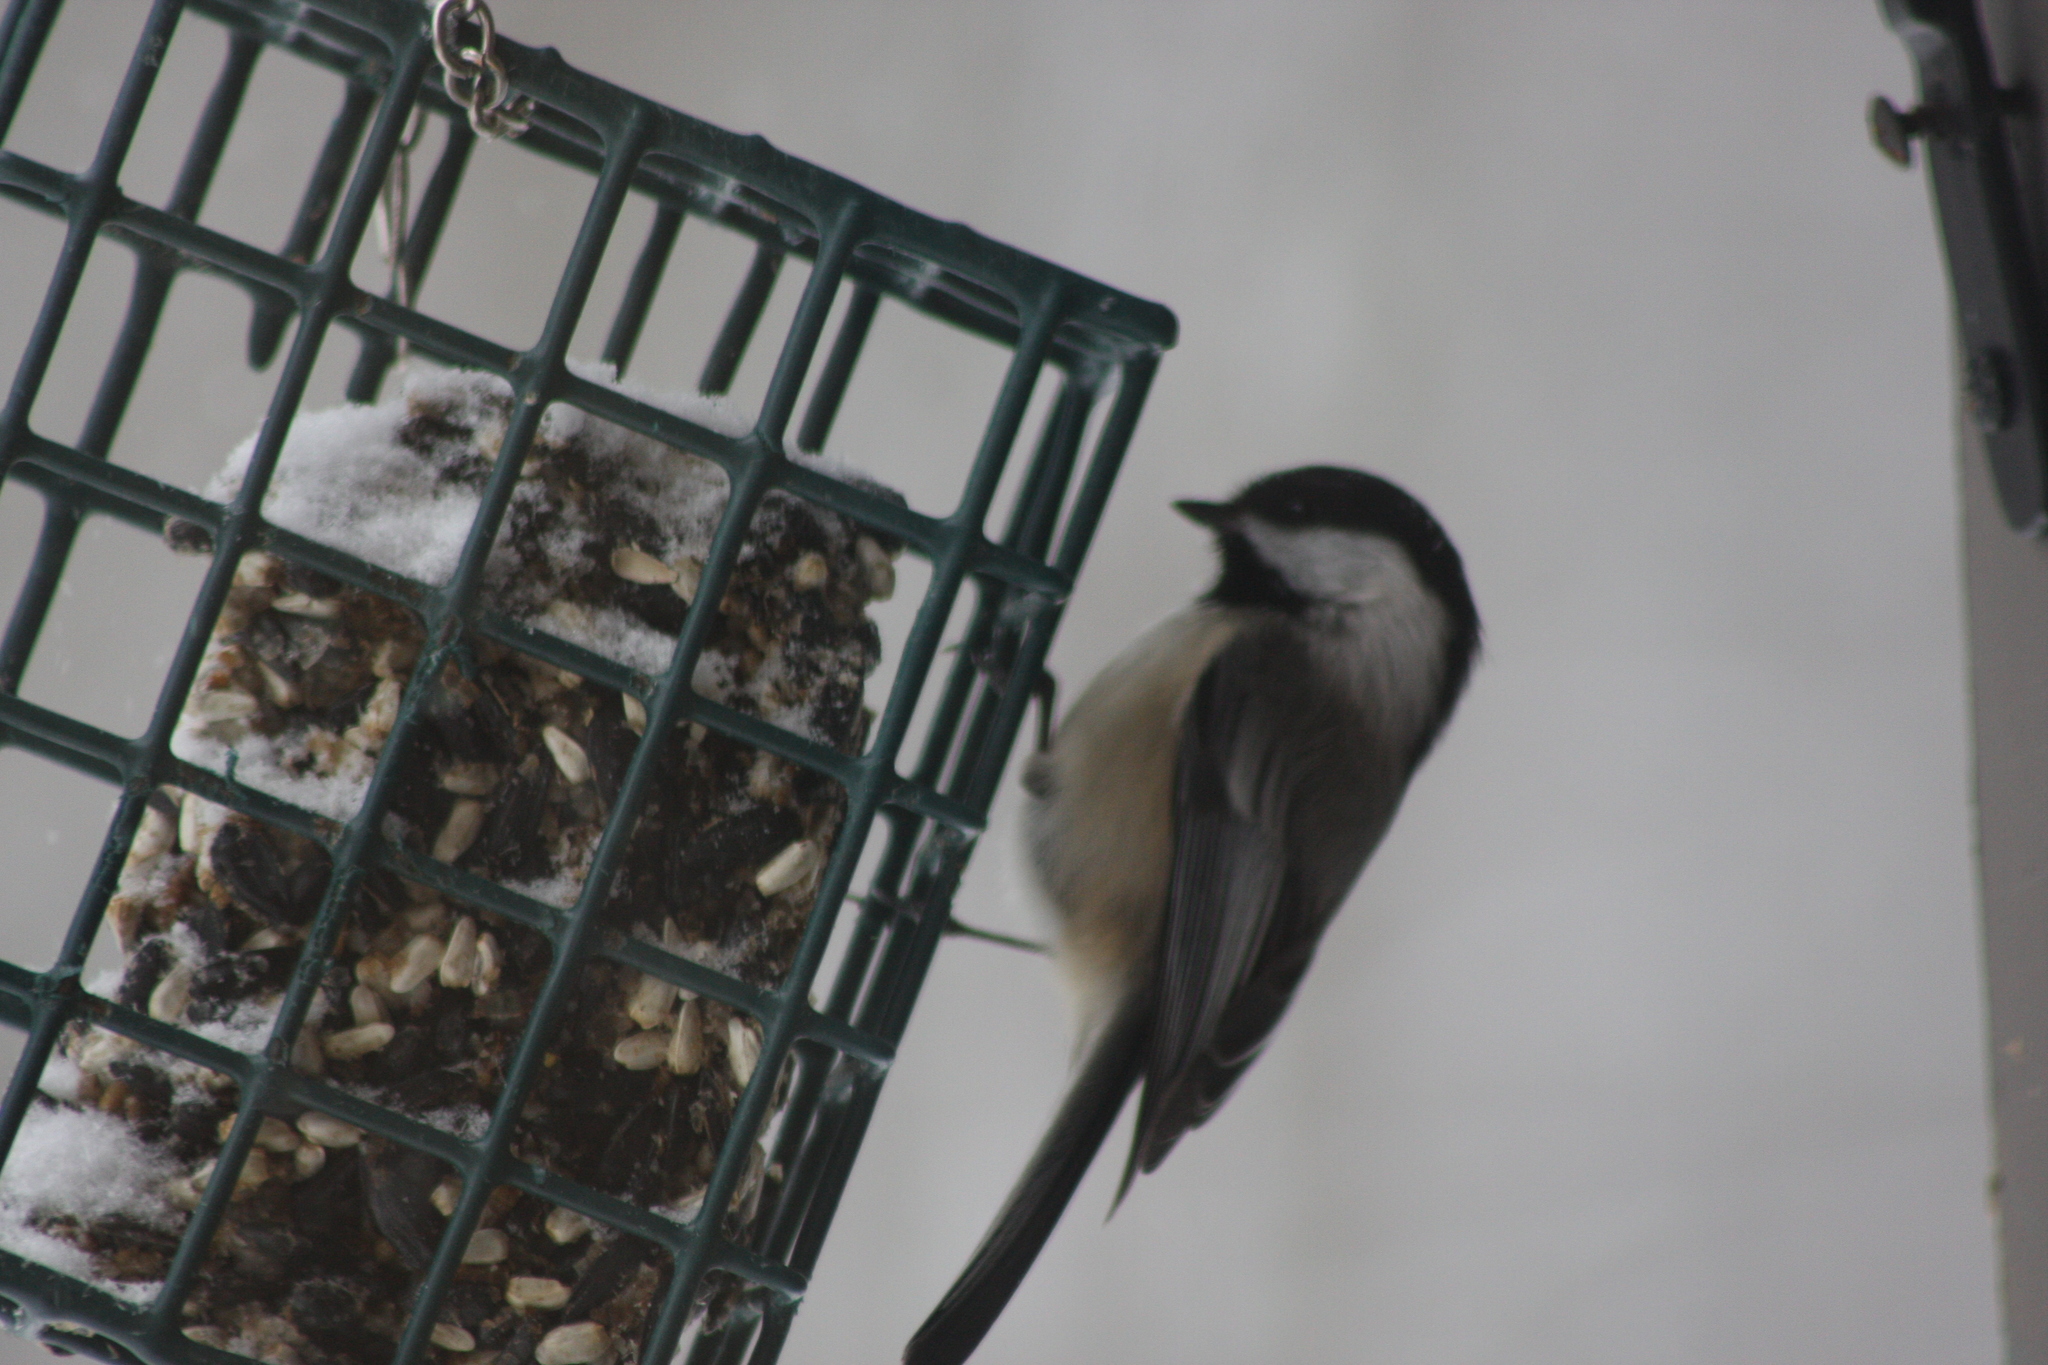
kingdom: Animalia
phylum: Chordata
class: Aves
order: Passeriformes
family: Paridae
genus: Poecile
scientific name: Poecile atricapillus
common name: Black-capped chickadee
